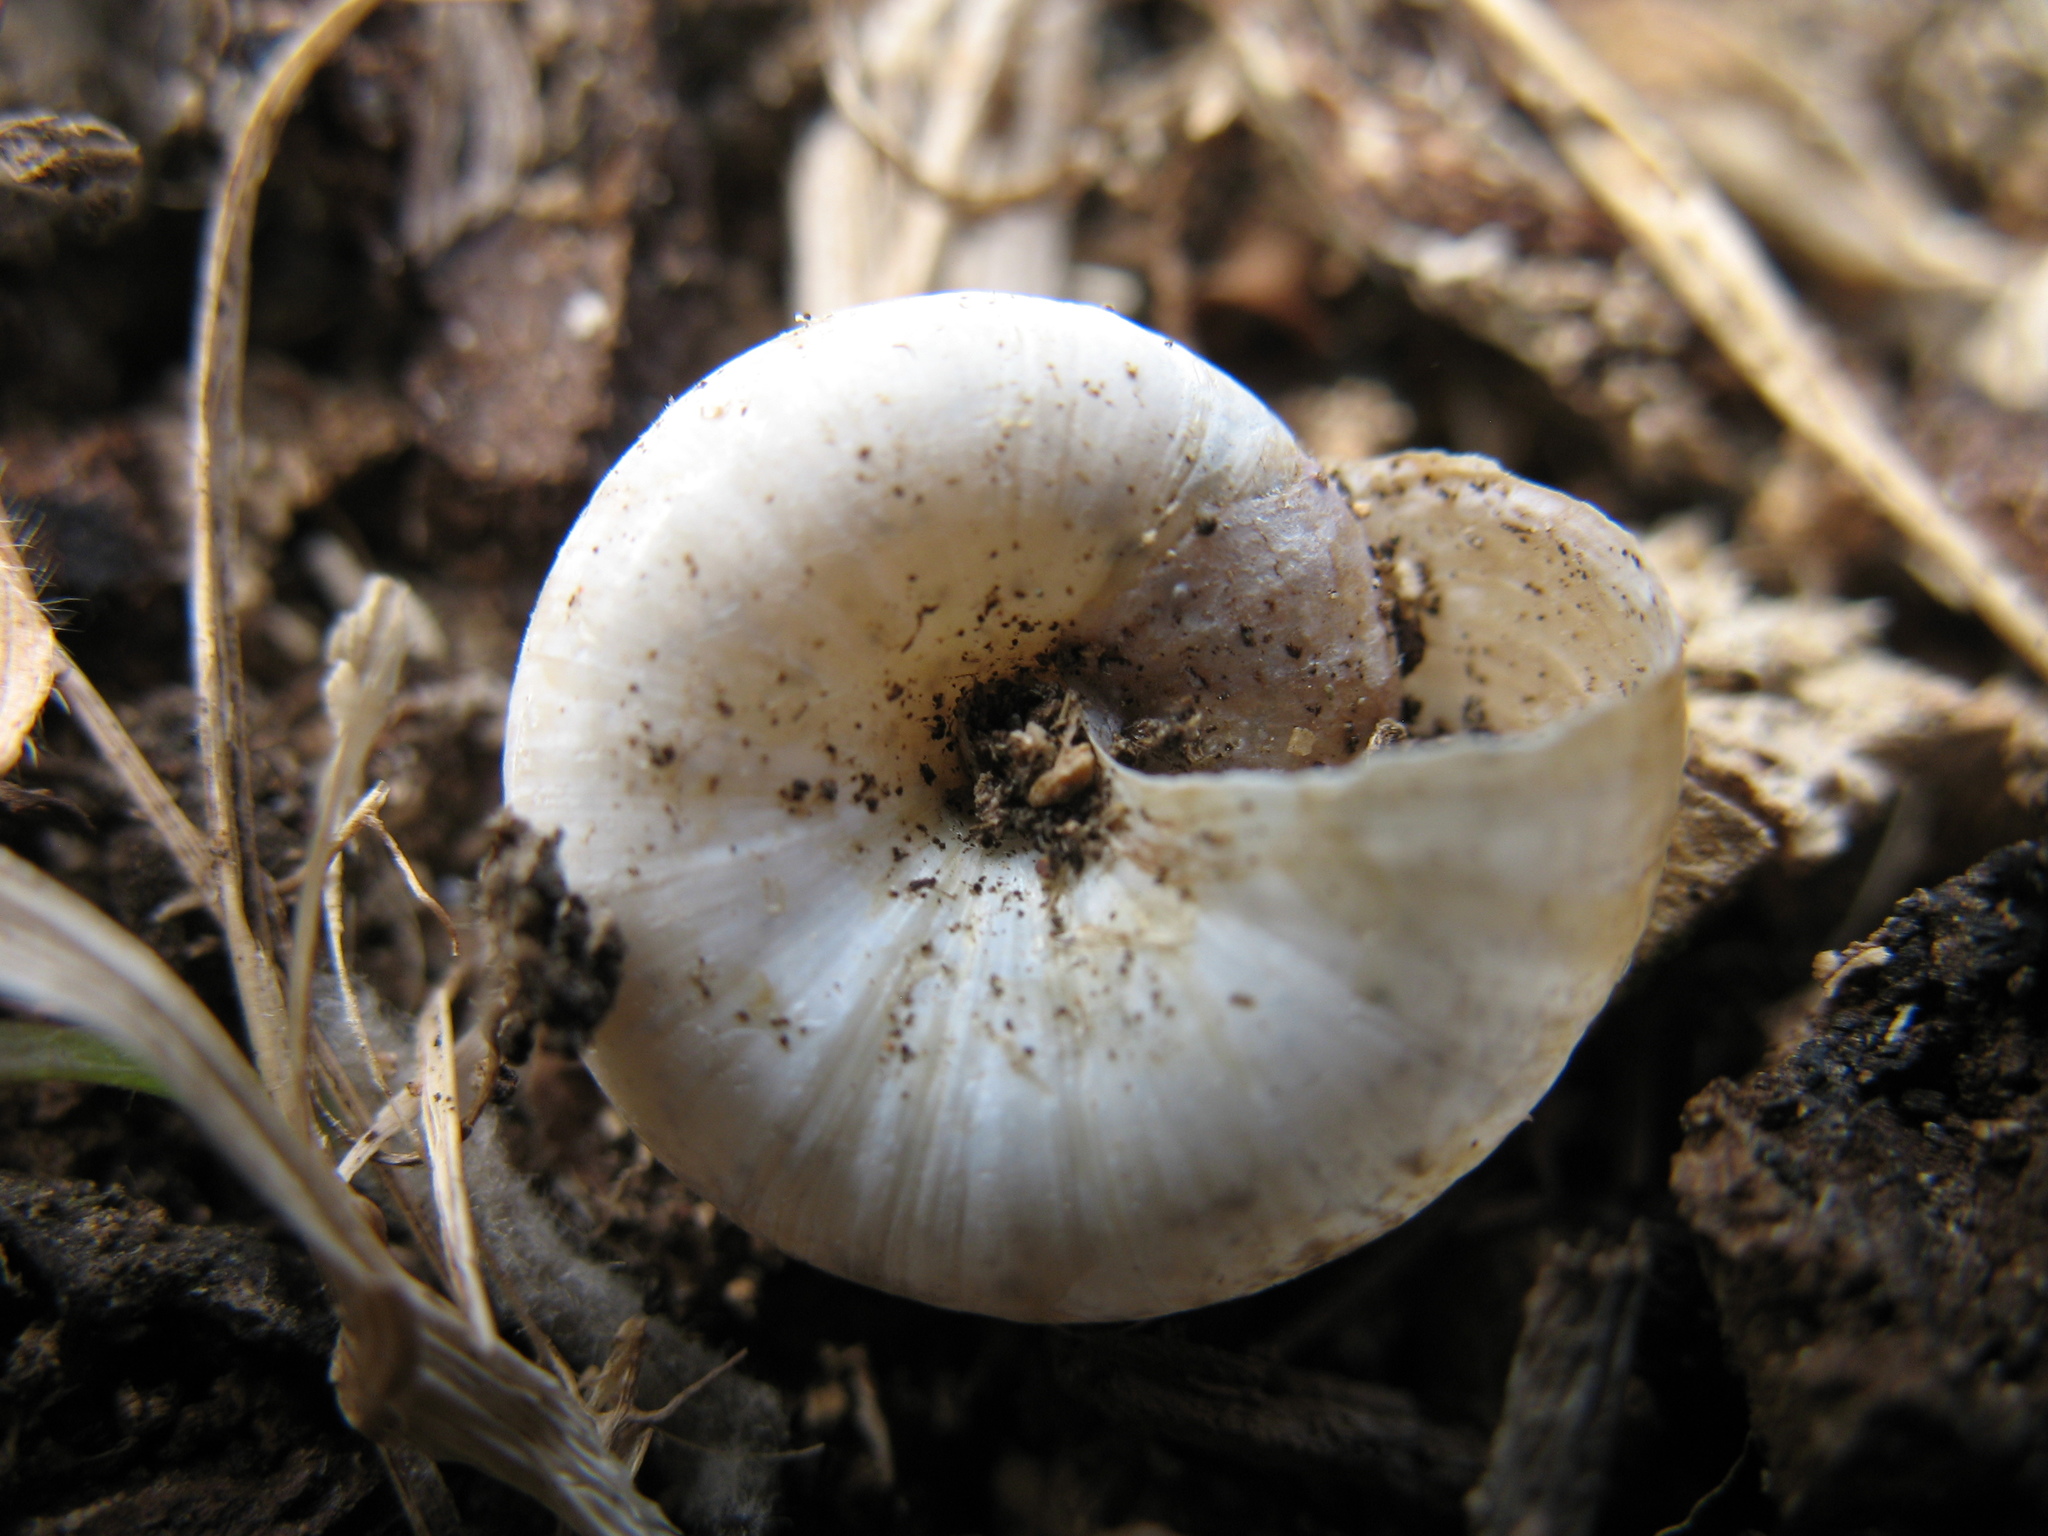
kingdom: Animalia
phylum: Mollusca
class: Gastropoda
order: Stylommatophora
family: Geomitridae
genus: Xeroplexa
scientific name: Xeroplexa intersecta
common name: Wrinkled snail
